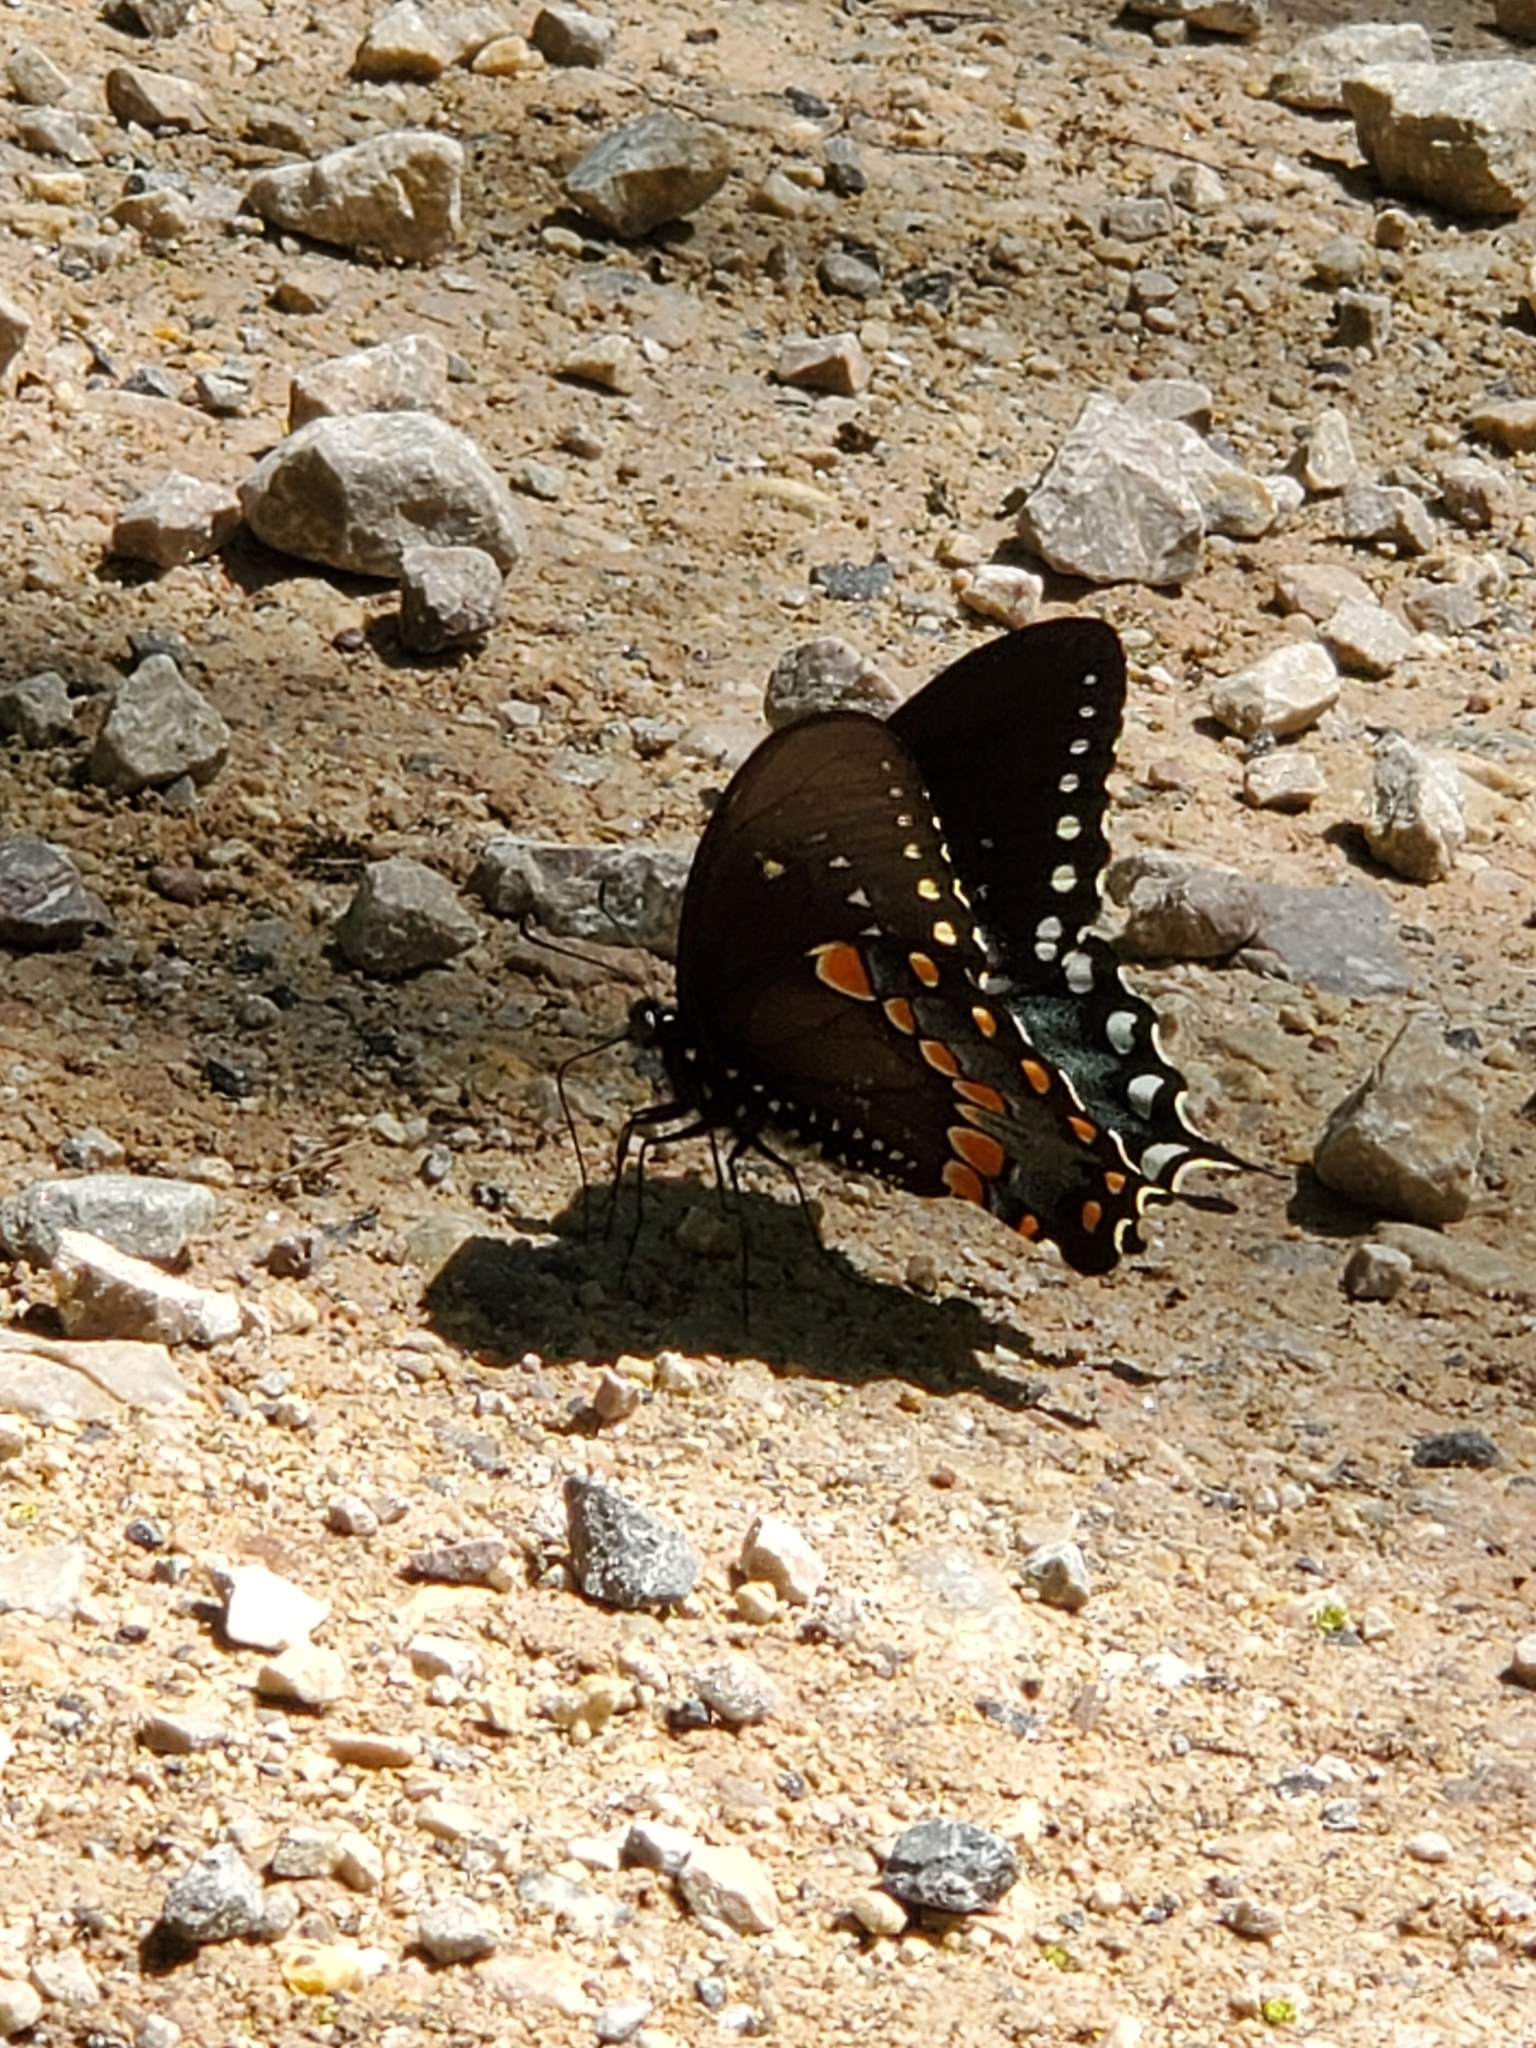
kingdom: Animalia
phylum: Arthropoda
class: Insecta
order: Lepidoptera
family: Papilionidae
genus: Papilio
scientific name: Papilio troilus
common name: Spicebush swallowtail
